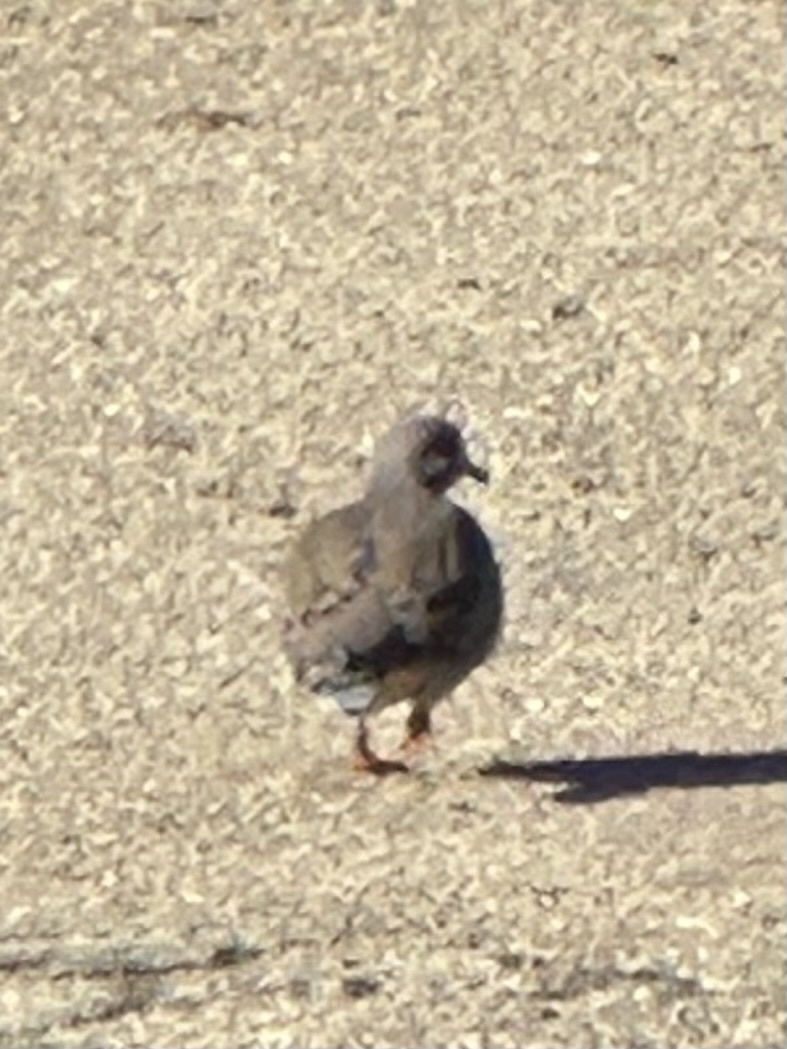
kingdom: Animalia
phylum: Chordata
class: Aves
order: Columbiformes
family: Columbidae
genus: Zenaida
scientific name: Zenaida macroura
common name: Mourning dove
